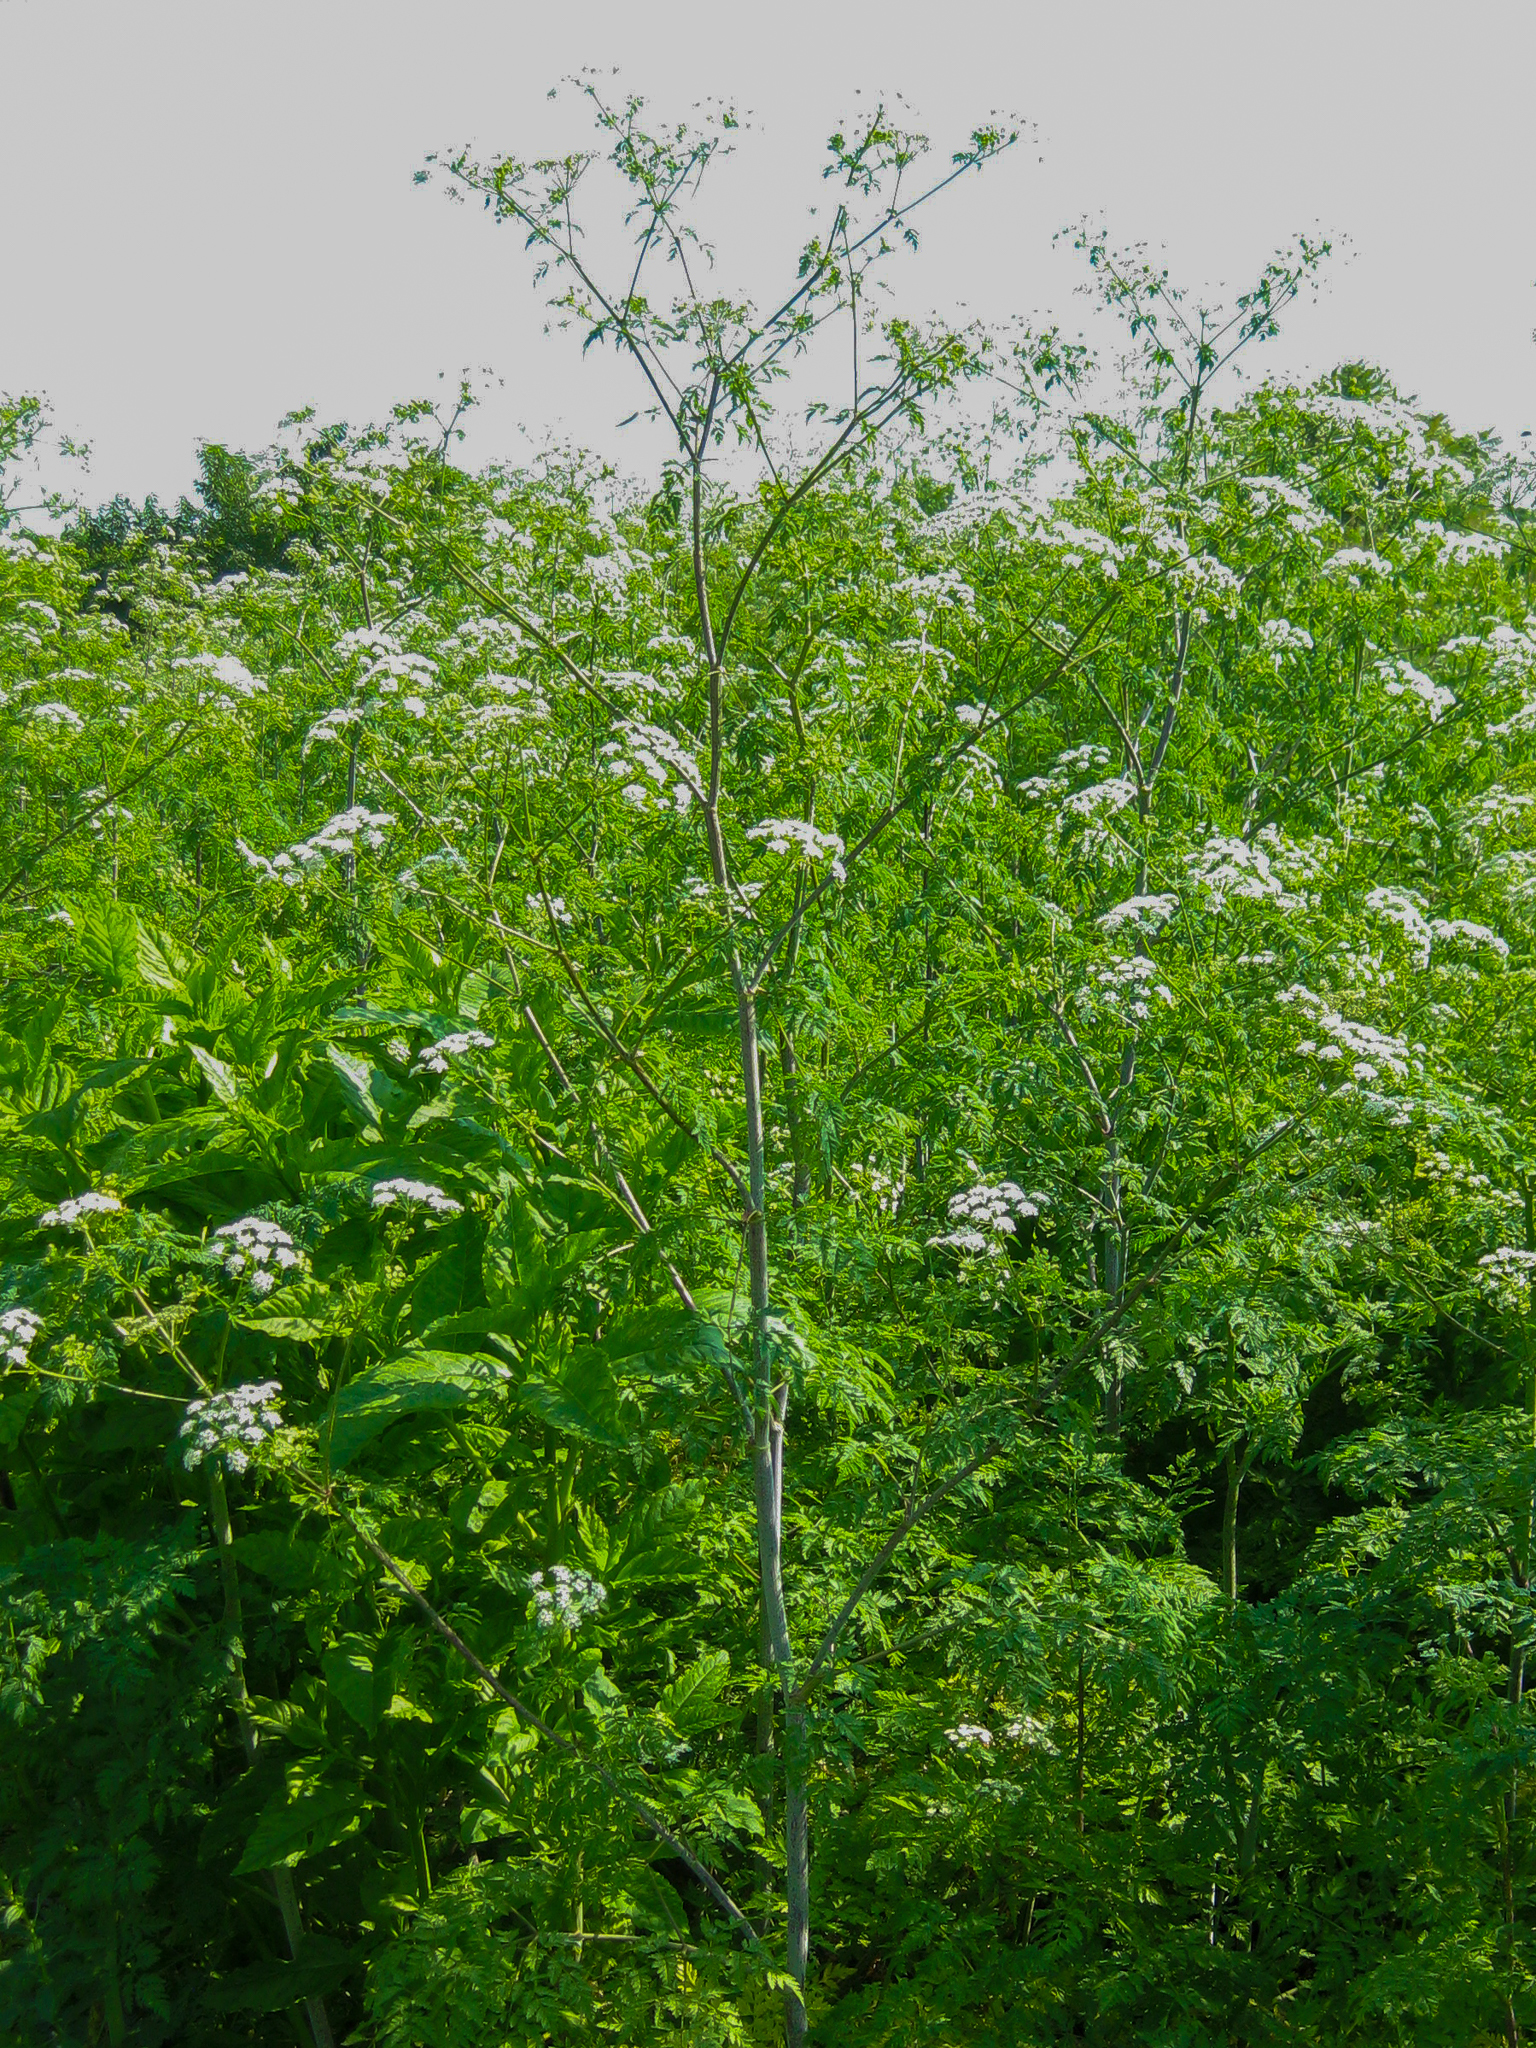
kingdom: Plantae
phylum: Tracheophyta
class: Magnoliopsida
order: Apiales
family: Apiaceae
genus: Conium
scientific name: Conium maculatum
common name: Hemlock
